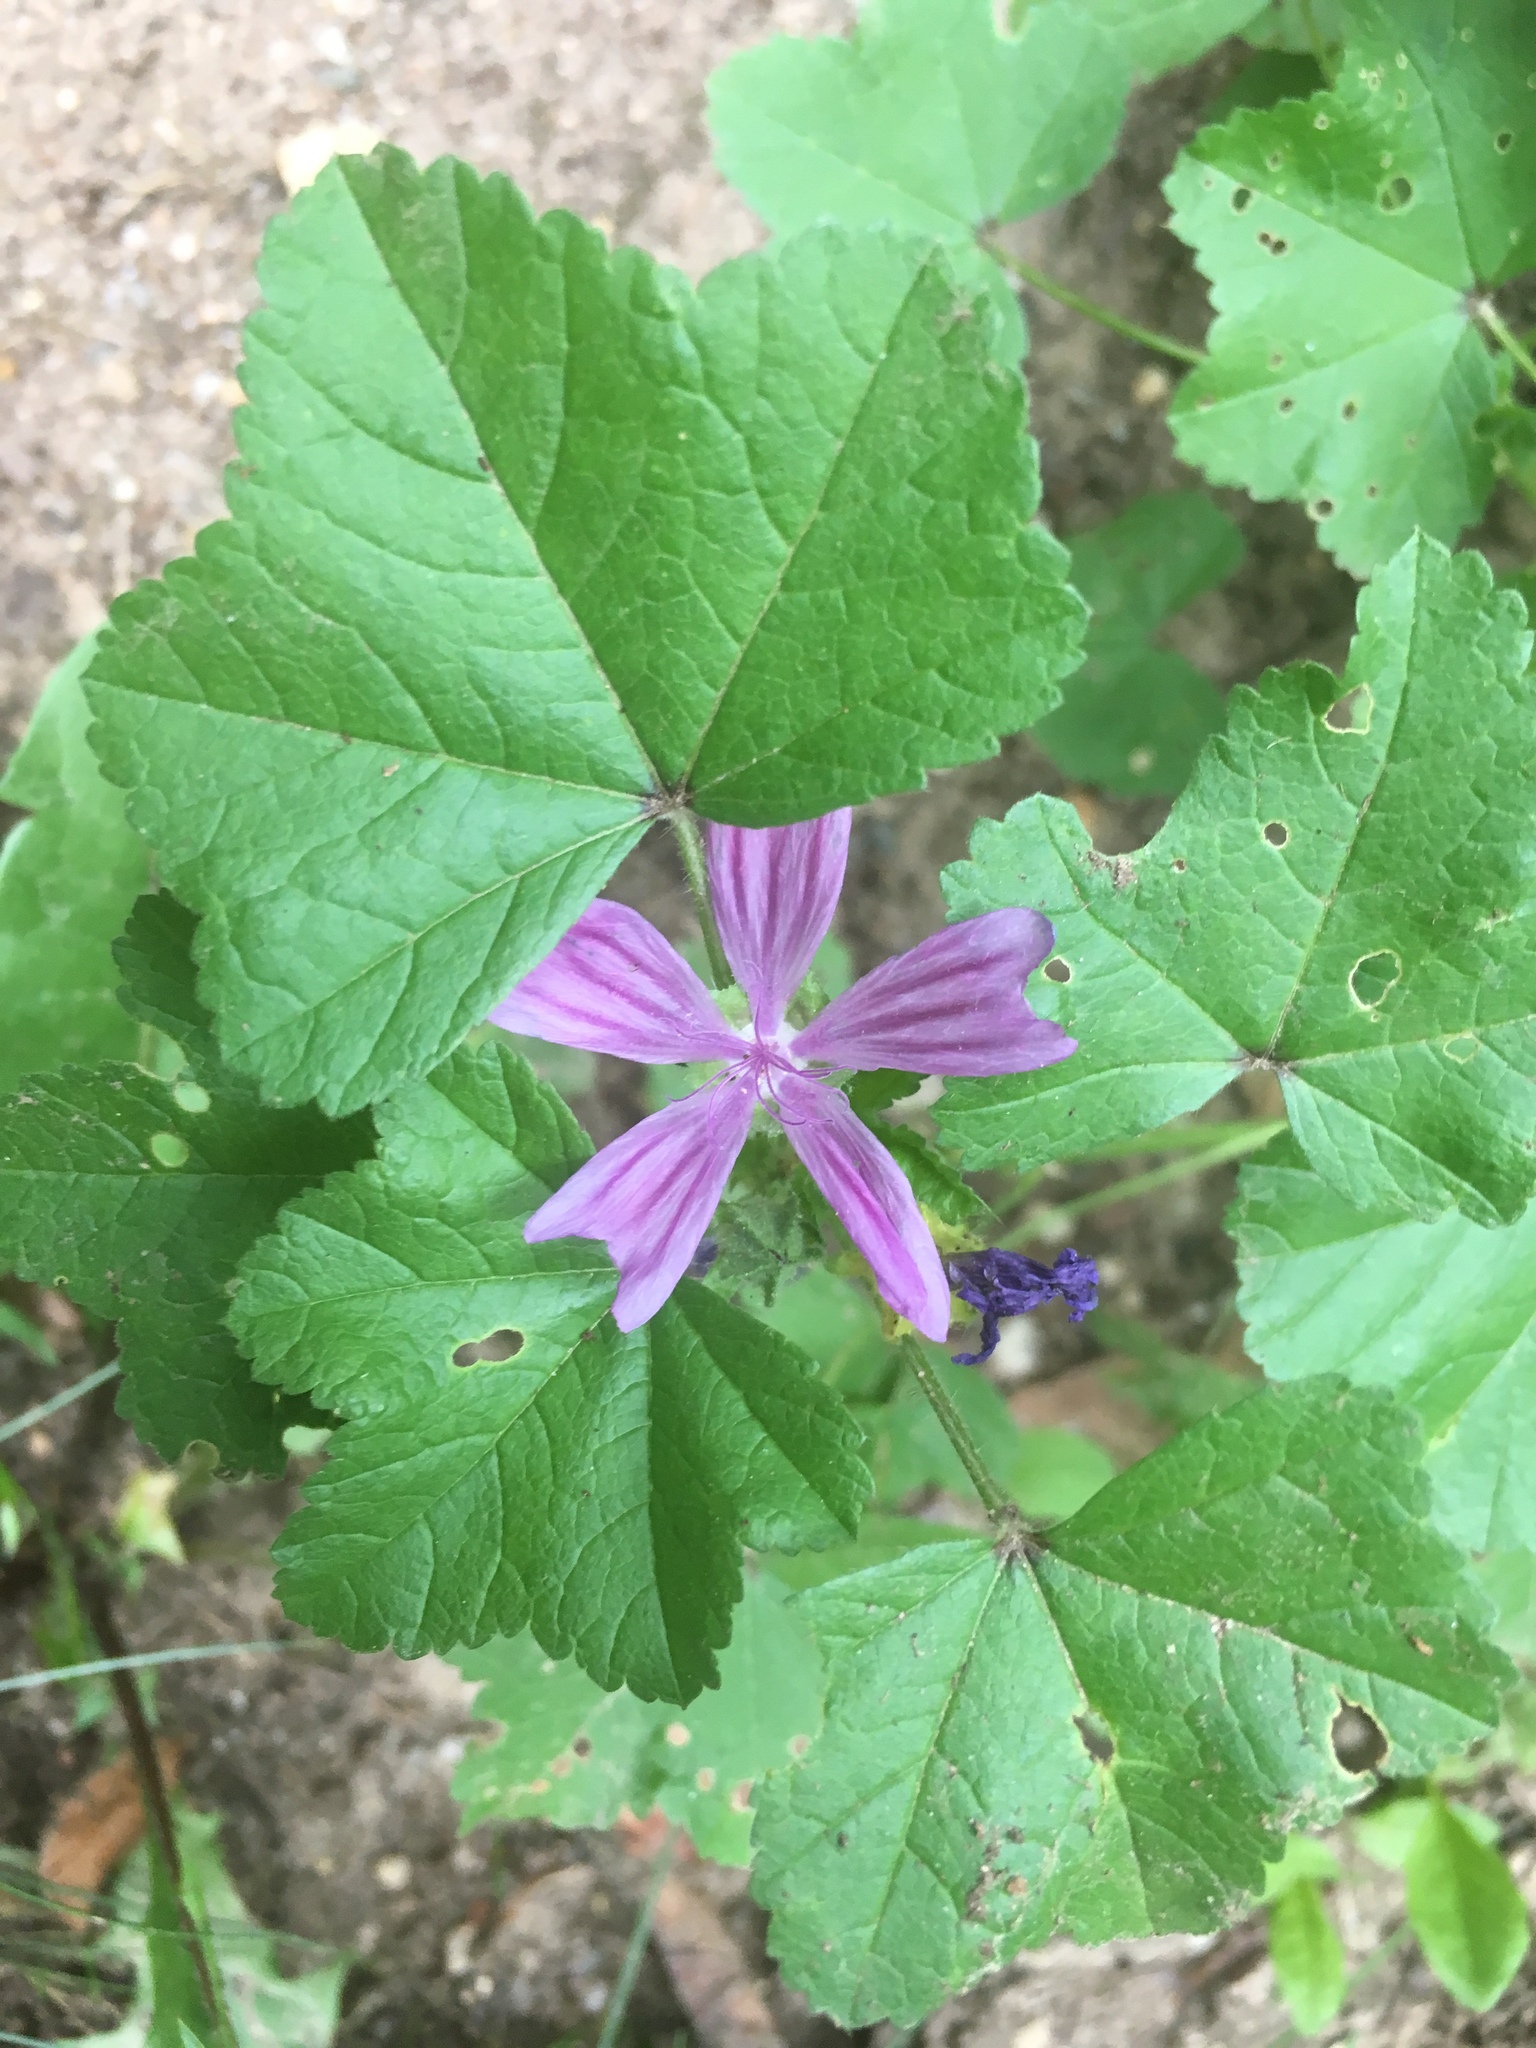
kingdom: Plantae
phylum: Tracheophyta
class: Magnoliopsida
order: Malvales
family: Malvaceae
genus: Malva
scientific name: Malva sylvestris
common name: Common mallow
